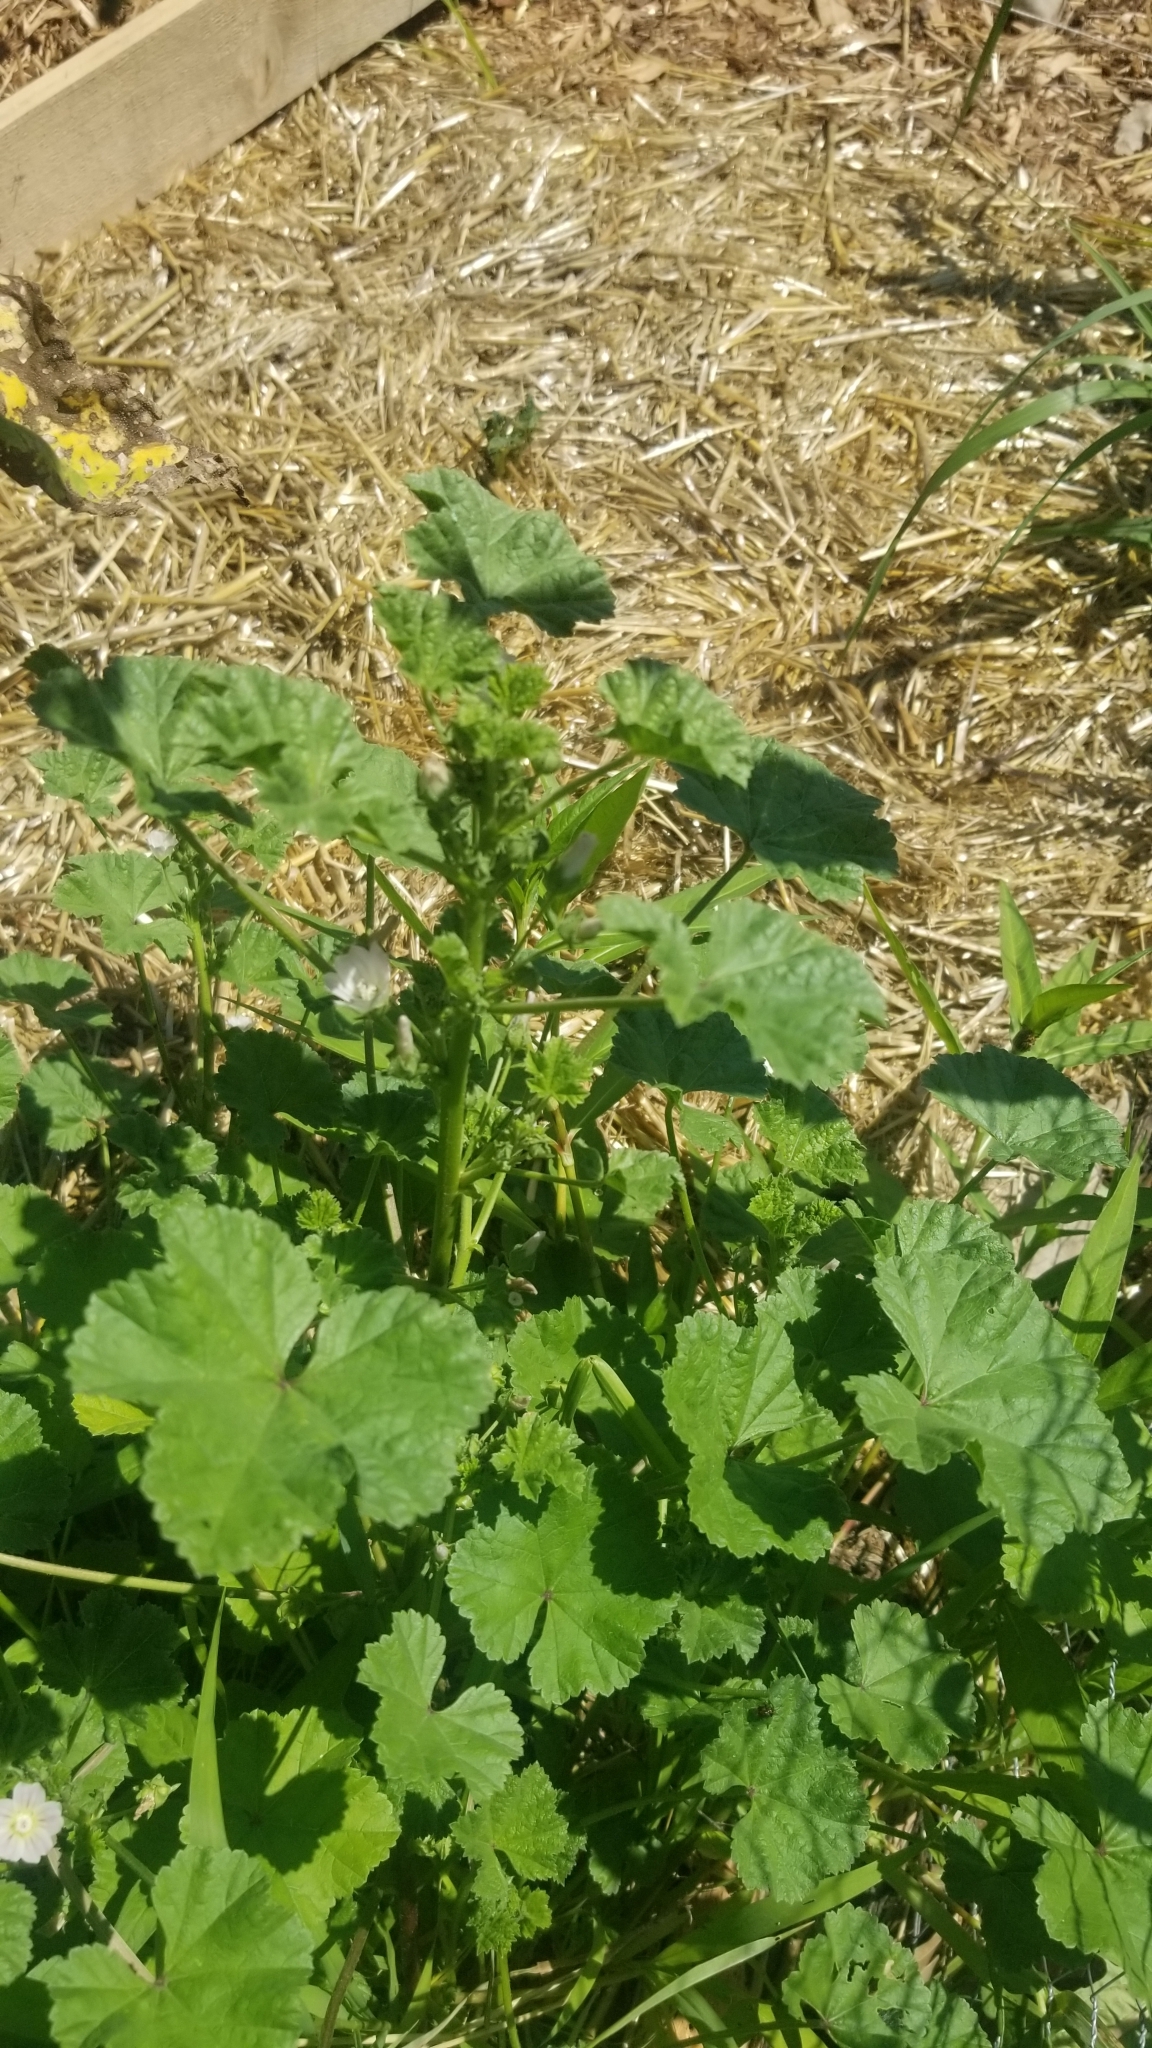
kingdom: Plantae
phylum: Tracheophyta
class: Magnoliopsida
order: Malvales
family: Malvaceae
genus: Malva
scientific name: Malva neglecta
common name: Common mallow
